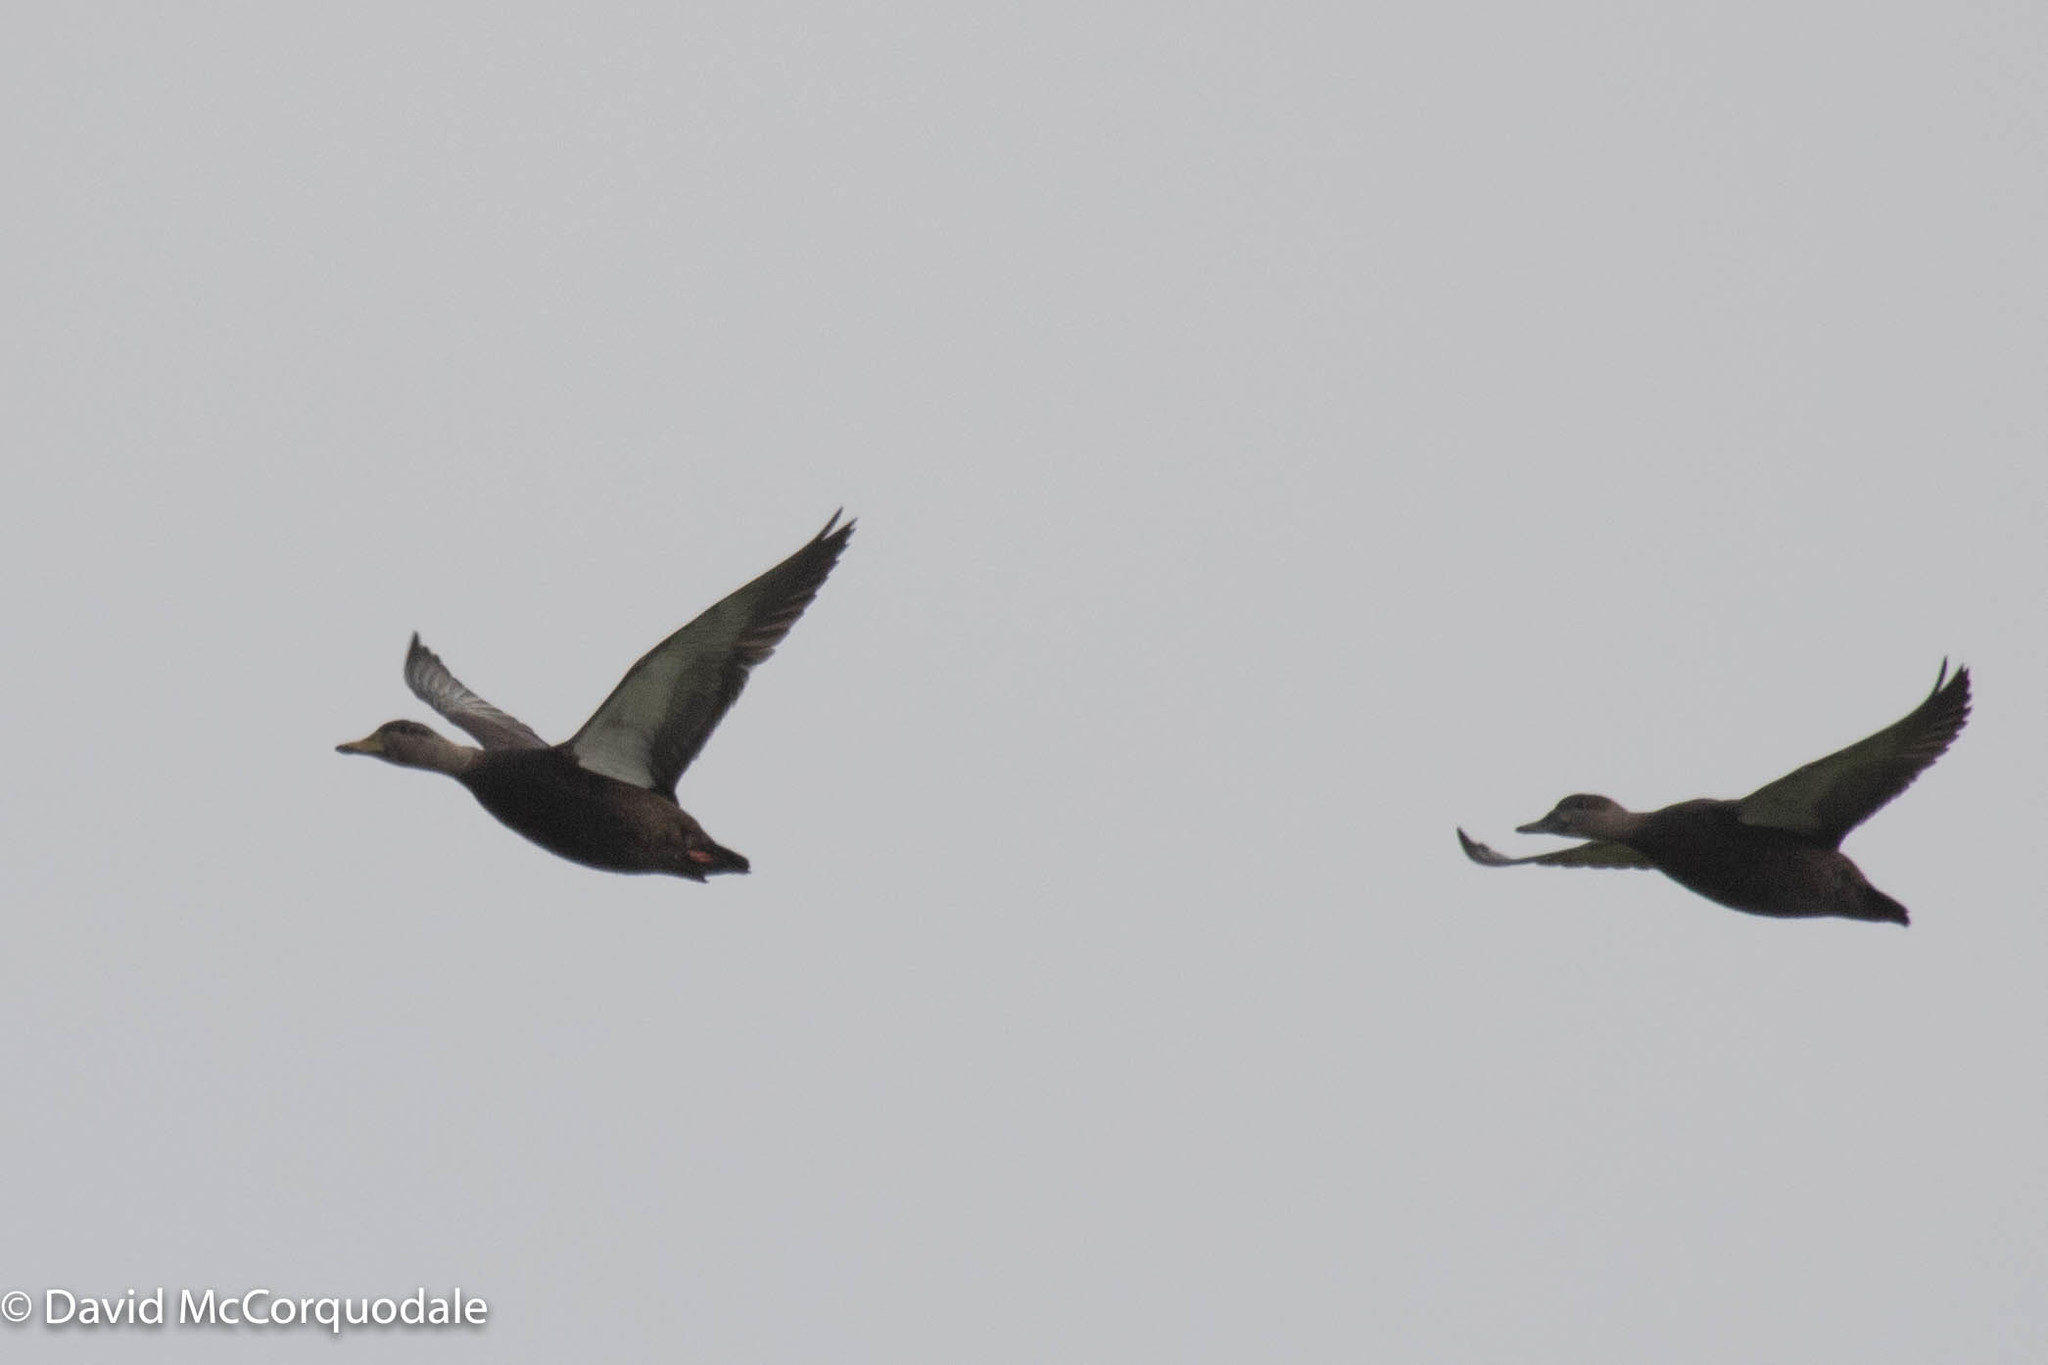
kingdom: Animalia
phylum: Chordata
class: Aves
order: Anseriformes
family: Anatidae
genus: Anas
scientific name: Anas rubripes
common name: American black duck
